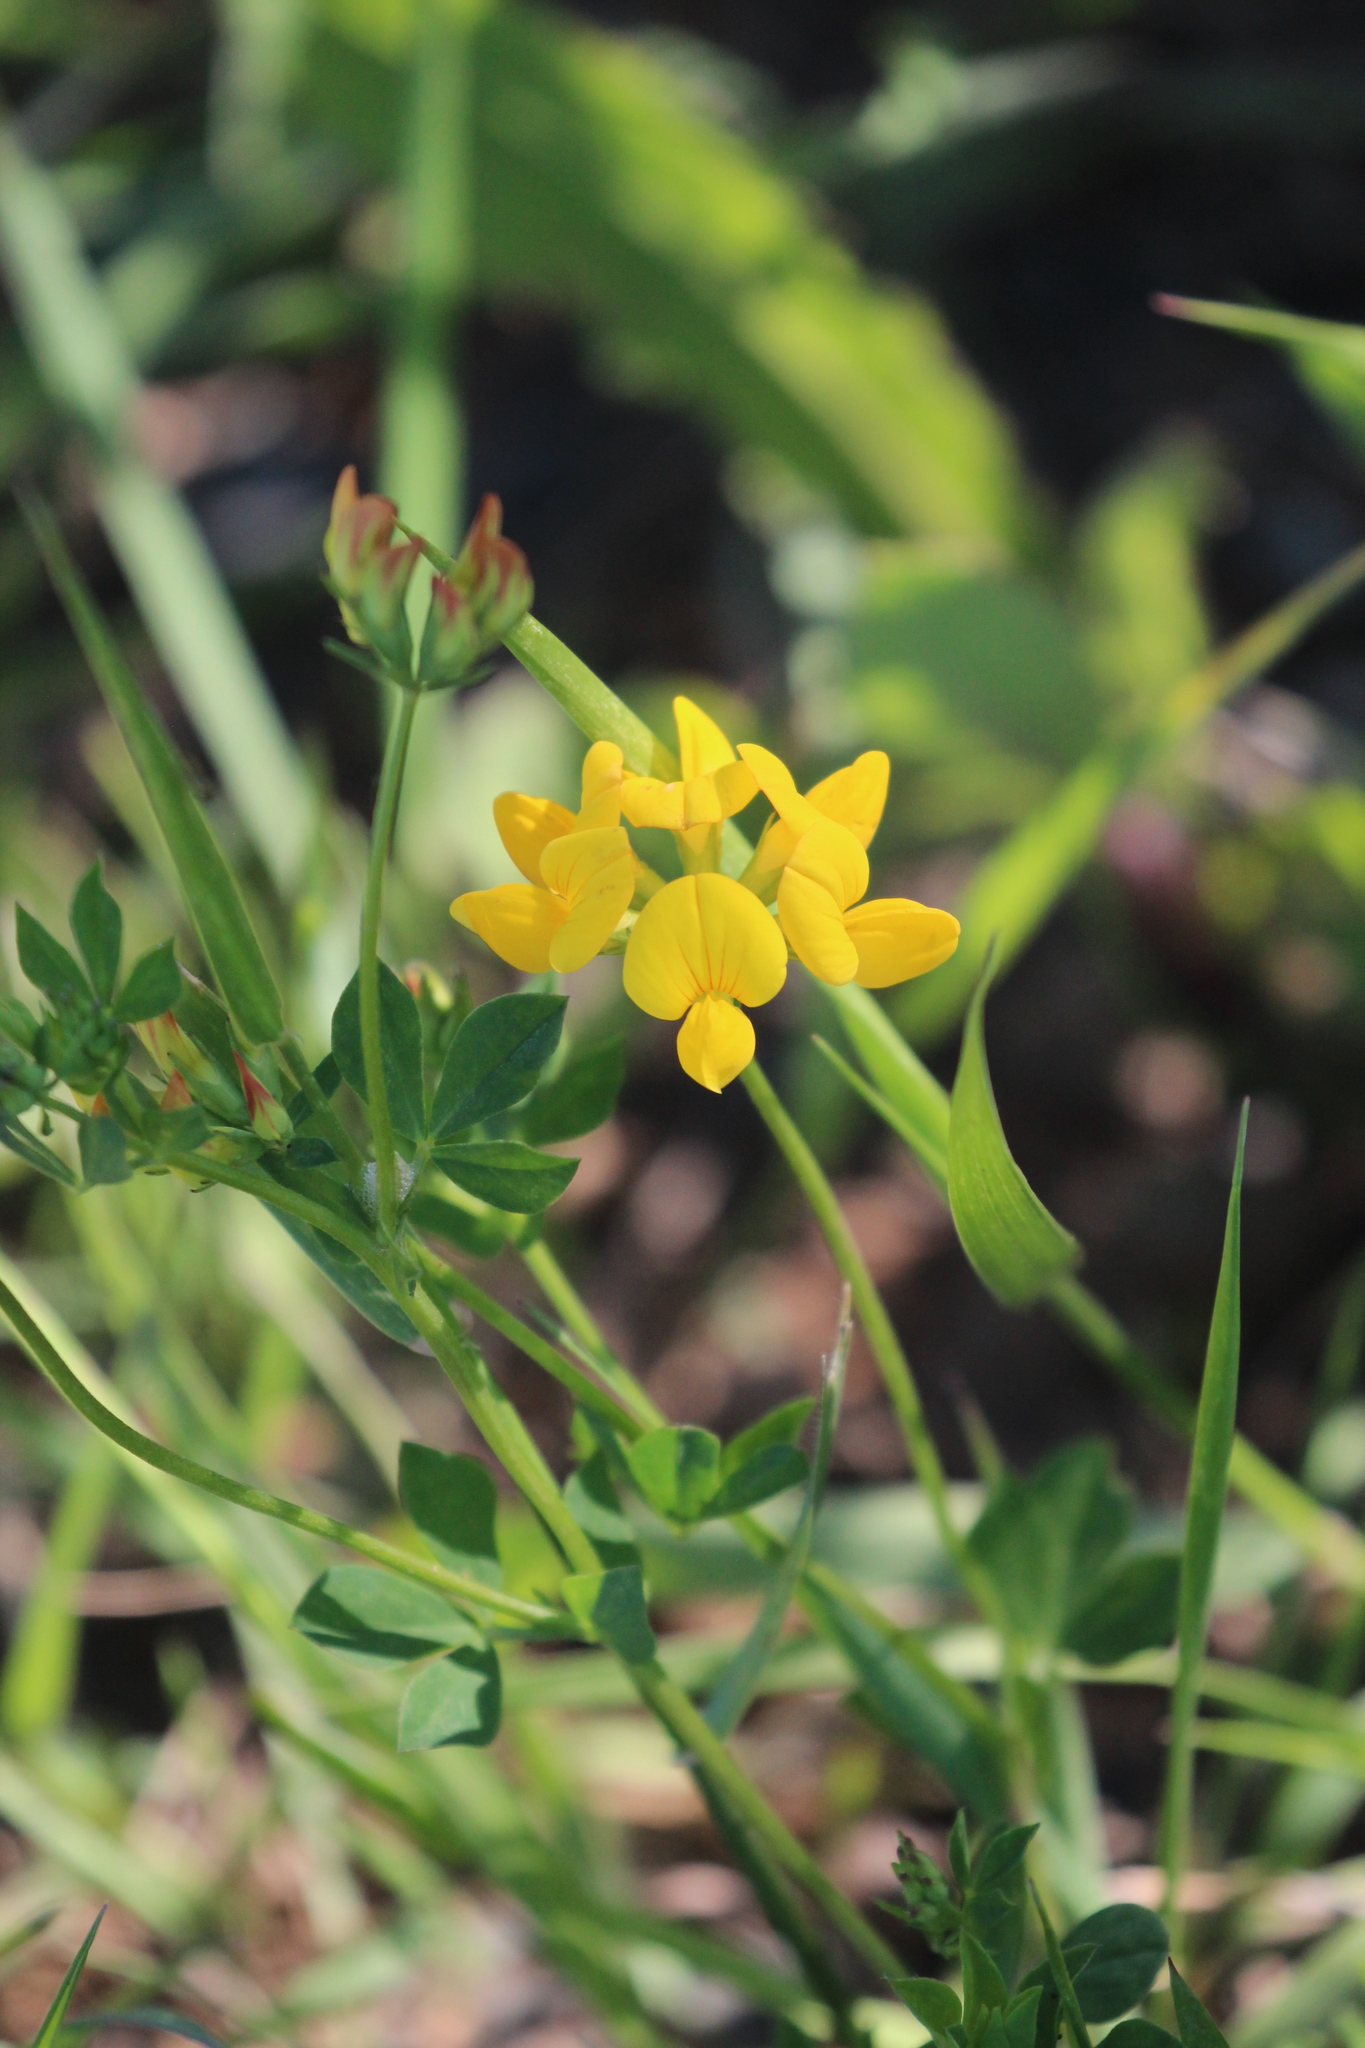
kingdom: Plantae
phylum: Tracheophyta
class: Magnoliopsida
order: Fabales
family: Fabaceae
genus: Lotus
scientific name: Lotus corniculatus
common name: Common bird's-foot-trefoil
